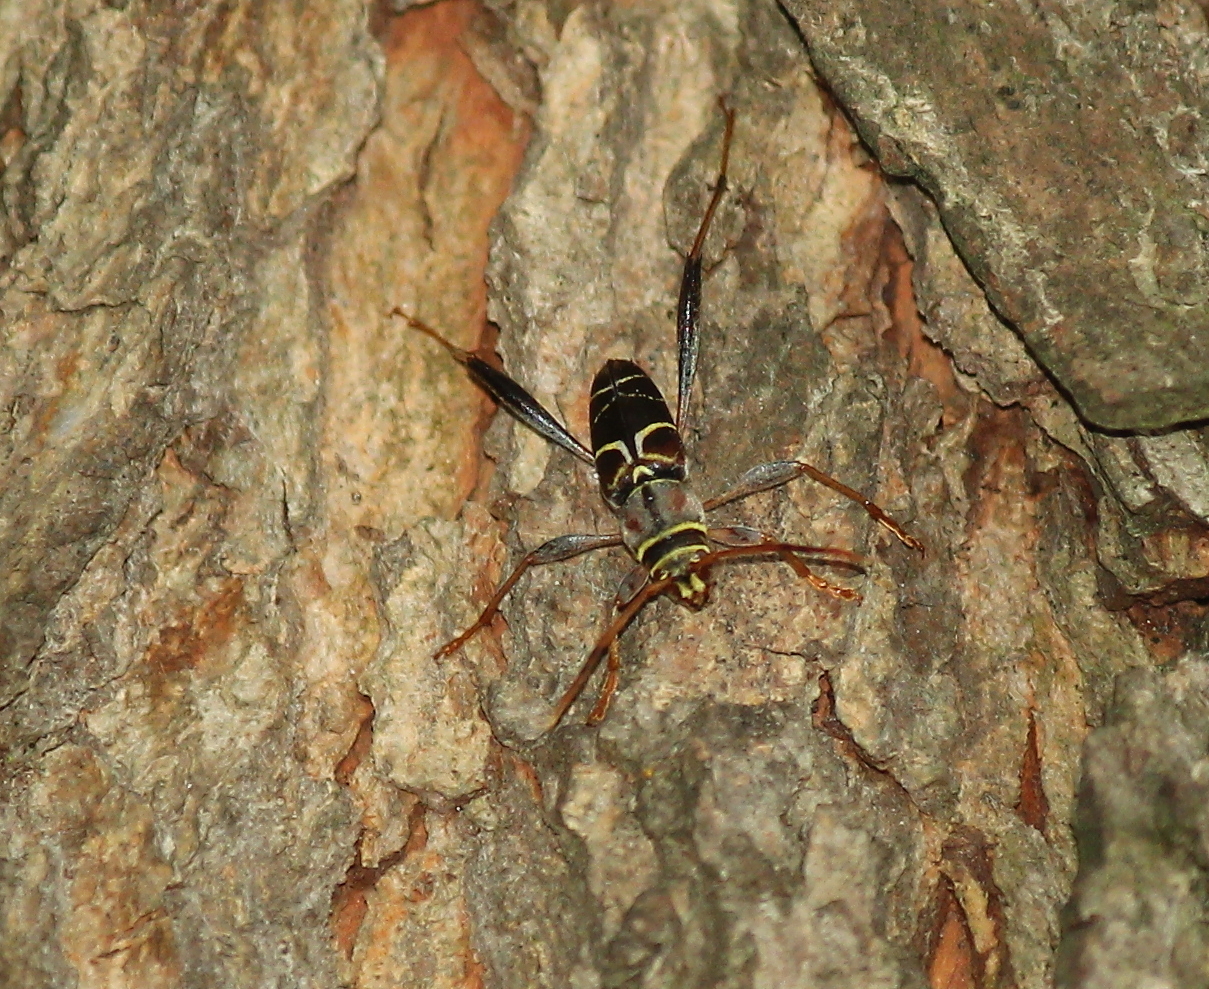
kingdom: Animalia
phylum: Arthropoda
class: Insecta
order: Coleoptera
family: Cerambycidae
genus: Neoclytus
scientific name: Neoclytus mucronatus
